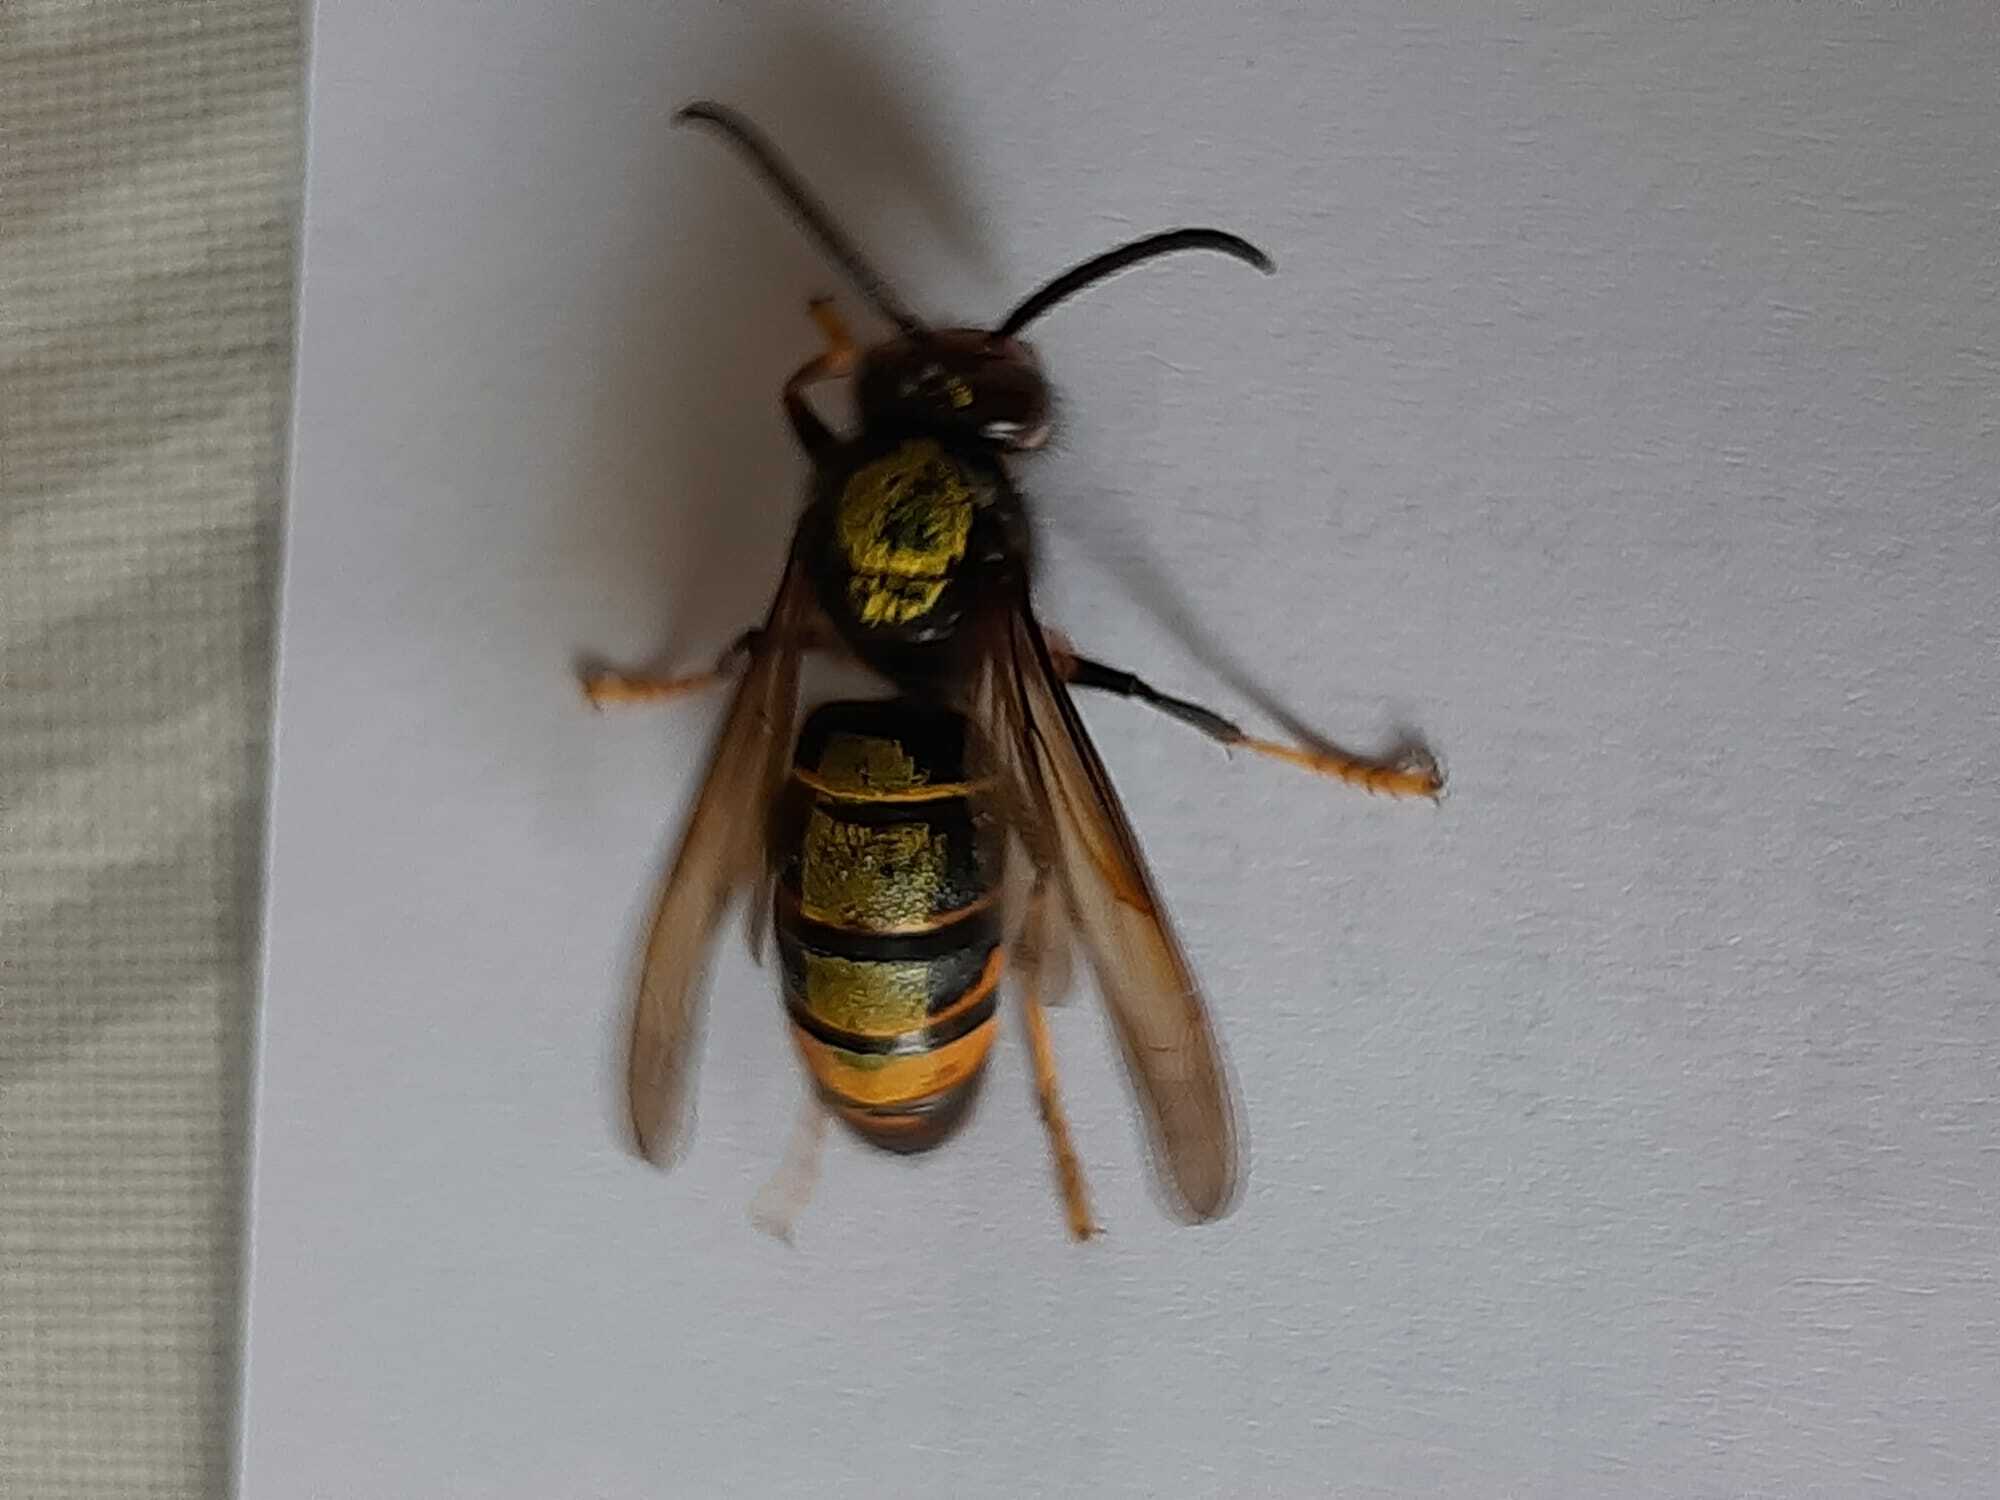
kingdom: Animalia
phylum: Arthropoda
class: Insecta
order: Hymenoptera
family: Vespidae
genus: Vespa
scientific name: Vespa velutina
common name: Asian hornet
